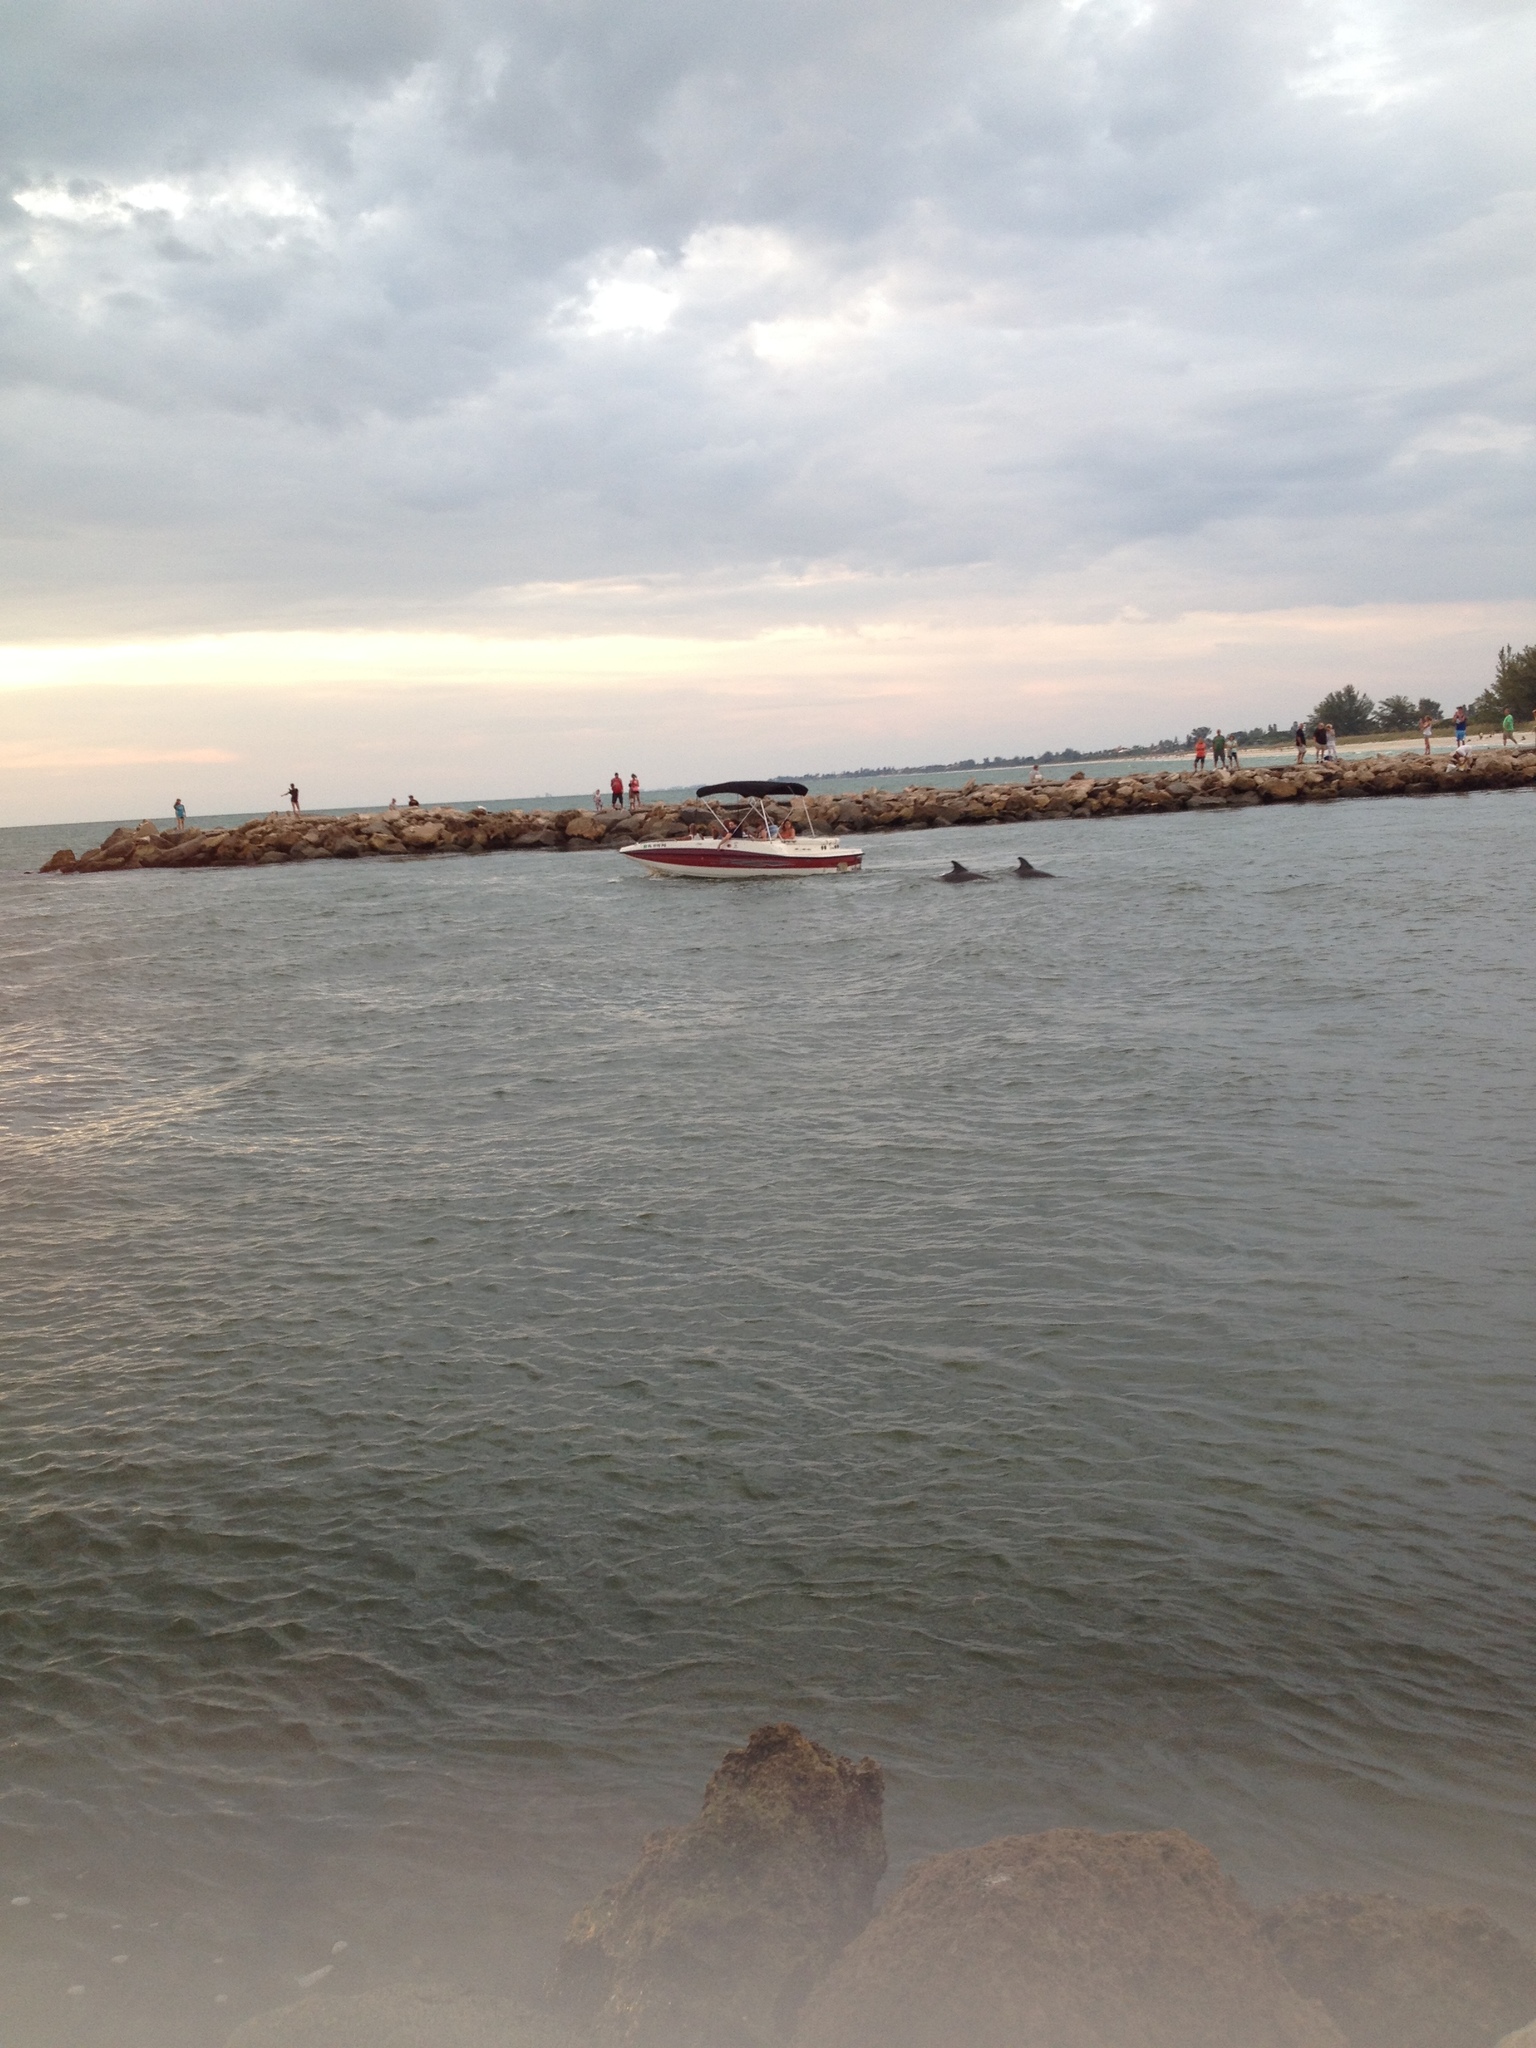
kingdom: Animalia
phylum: Chordata
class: Mammalia
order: Cetacea
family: Delphinidae
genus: Tursiops
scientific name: Tursiops truncatus
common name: Bottlenose dolphin
